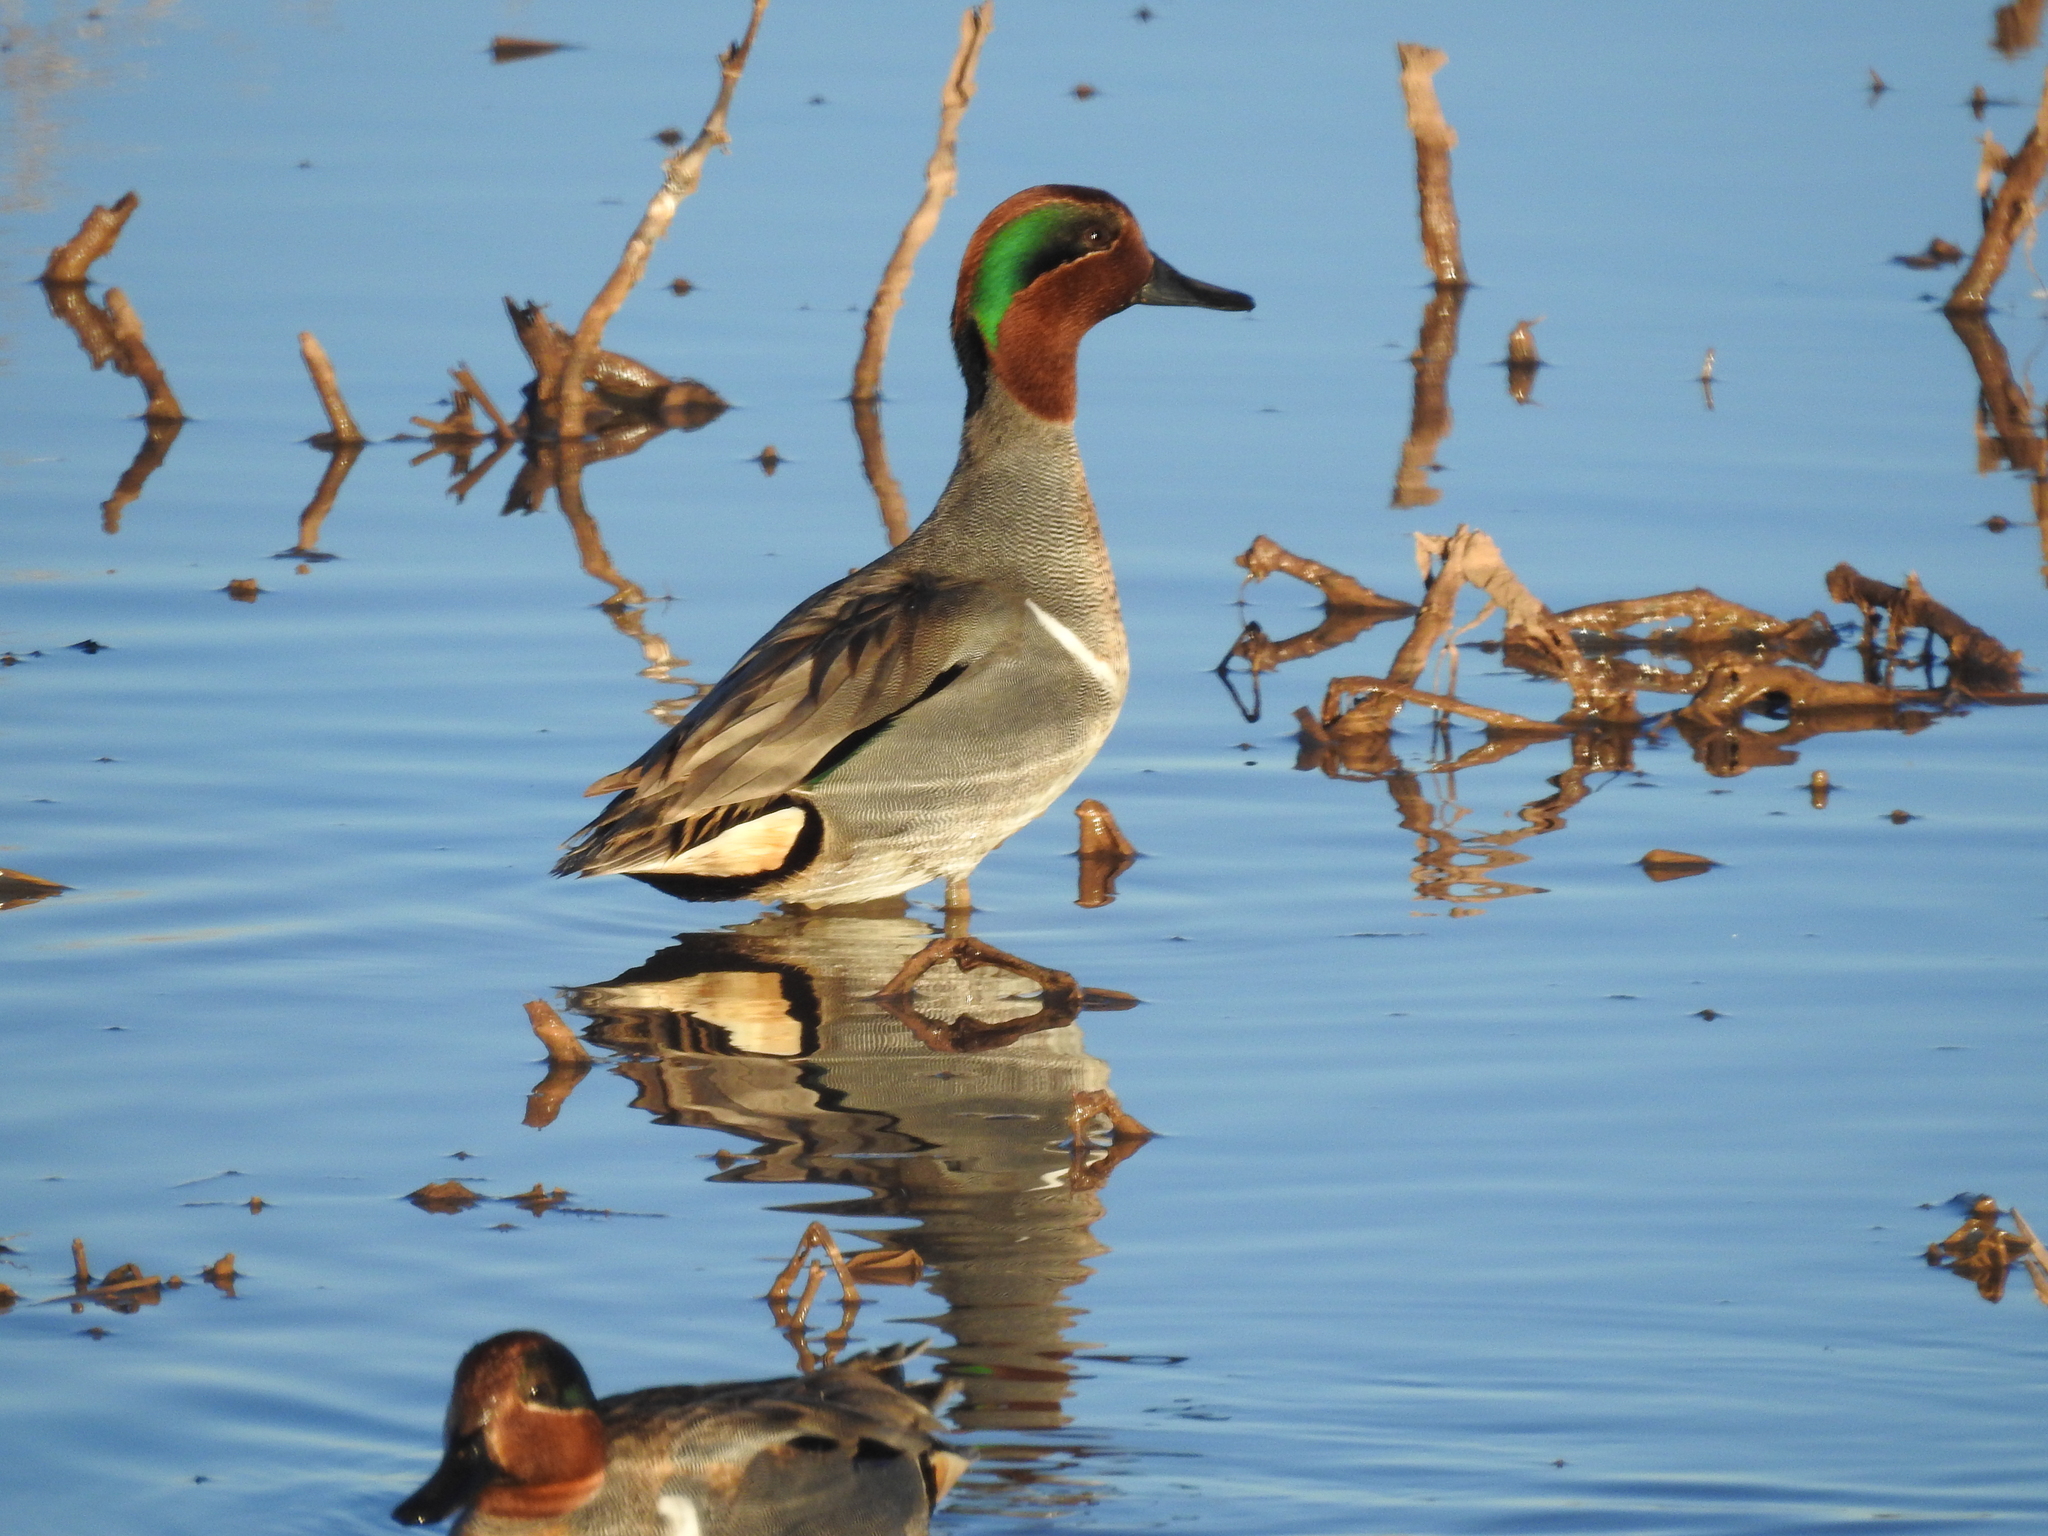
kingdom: Animalia
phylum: Chordata
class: Aves
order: Anseriformes
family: Anatidae
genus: Anas
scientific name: Anas crecca
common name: Eurasian teal
